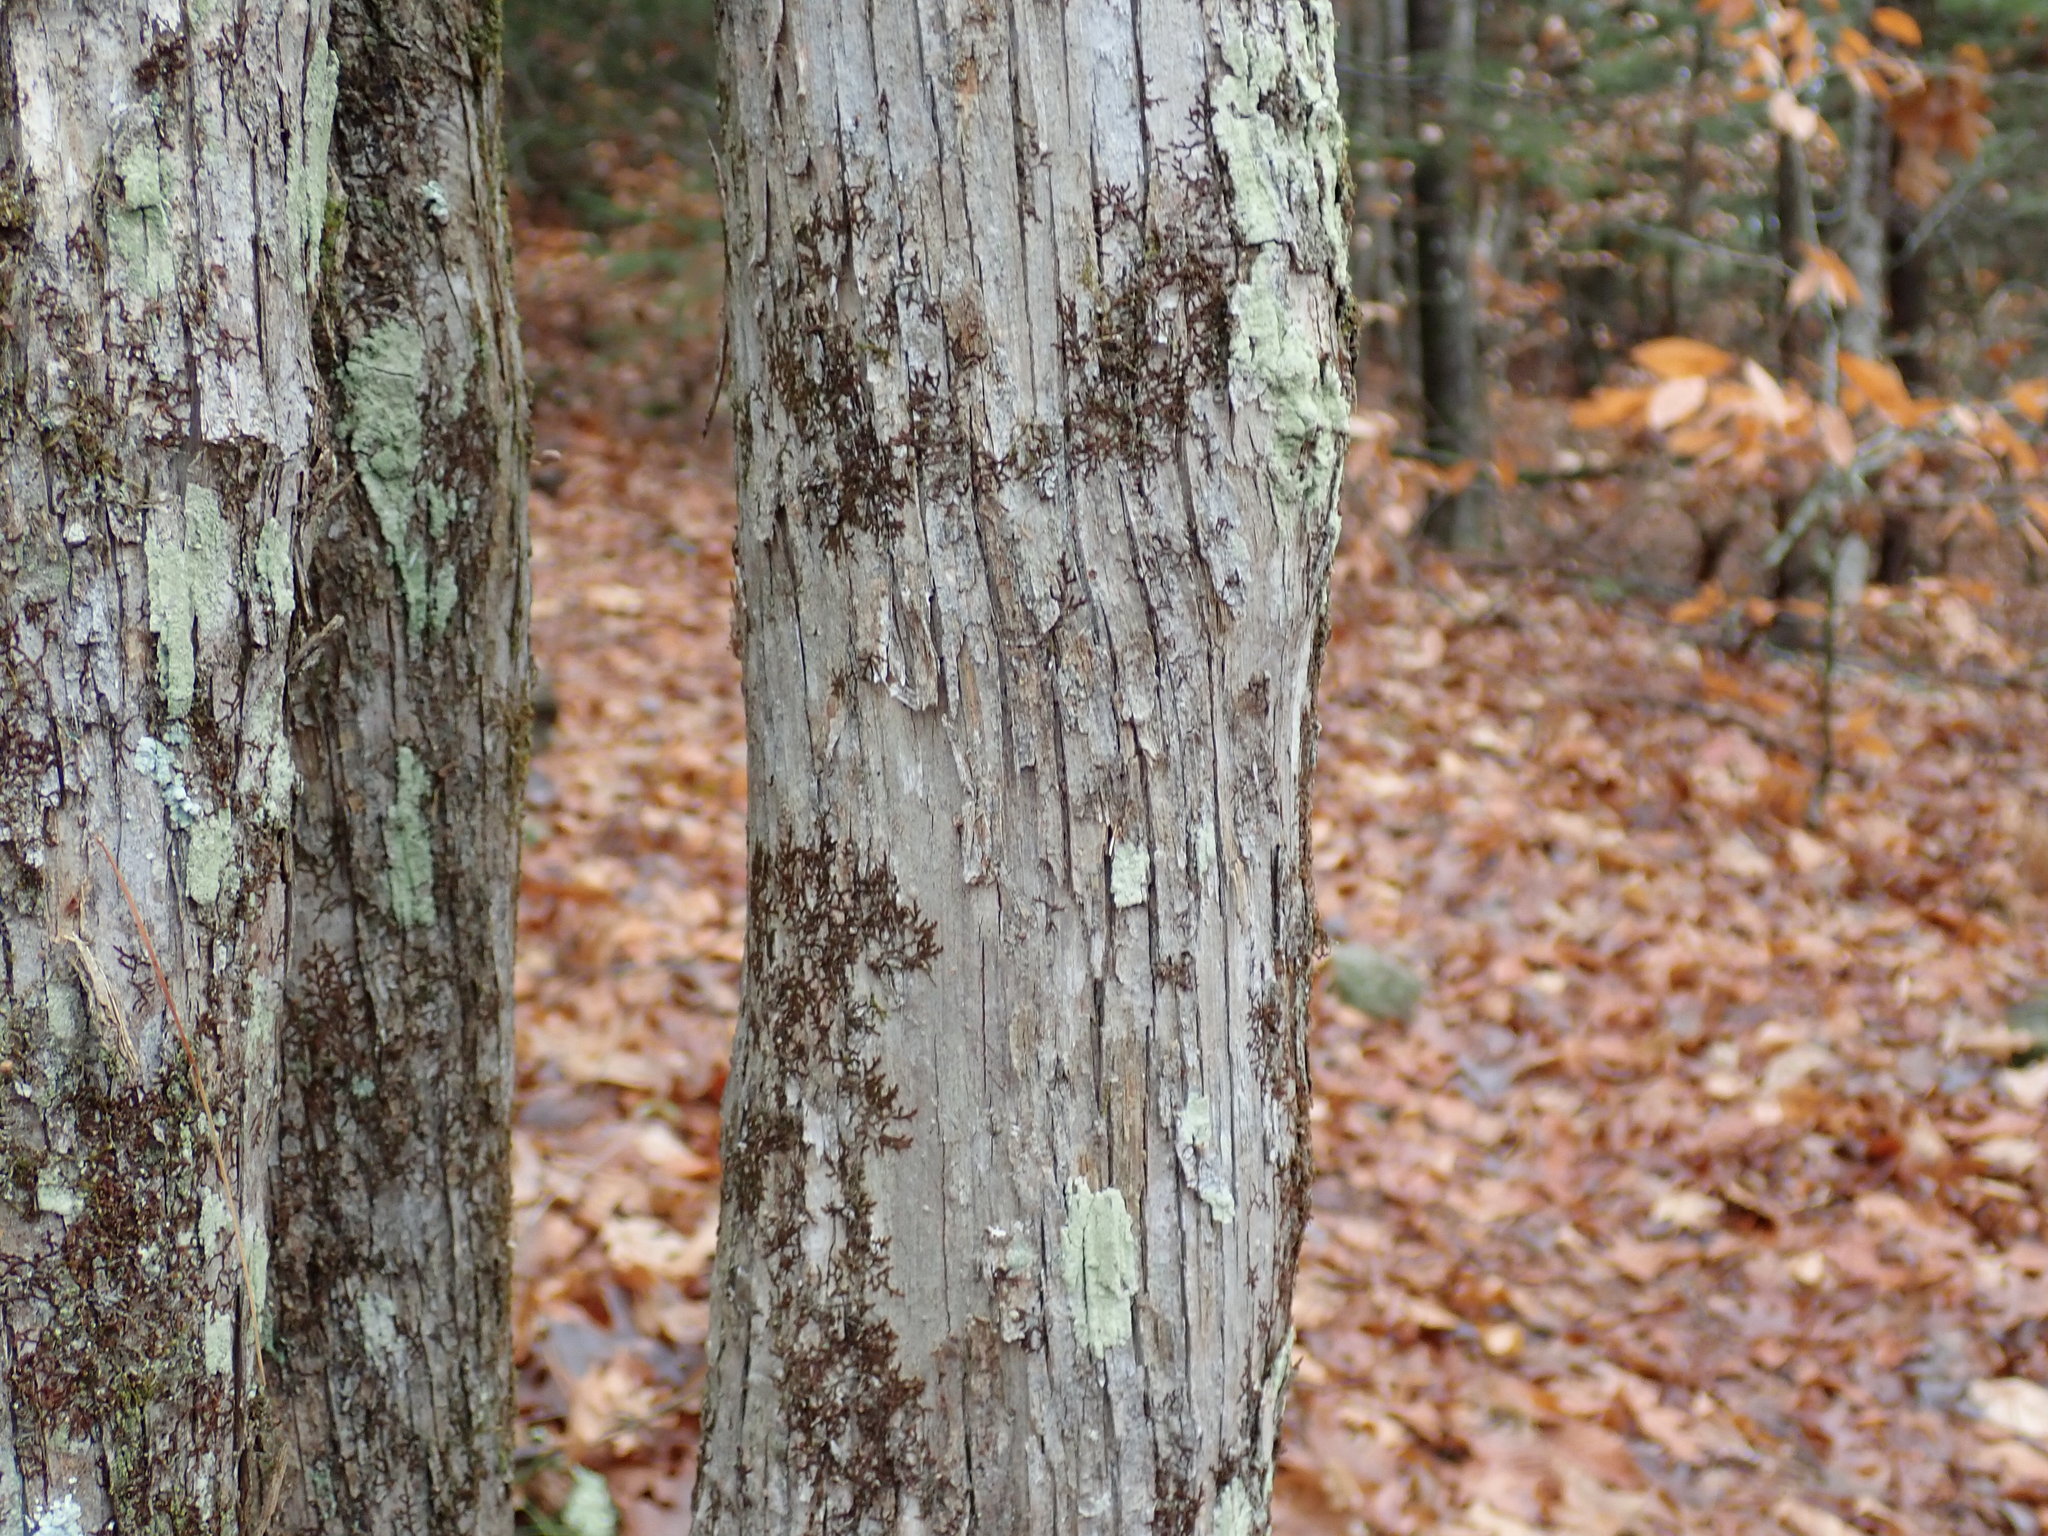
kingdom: Plantae
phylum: Tracheophyta
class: Magnoliopsida
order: Fagales
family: Betulaceae
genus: Ostrya
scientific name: Ostrya virginiana
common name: Ironwood
